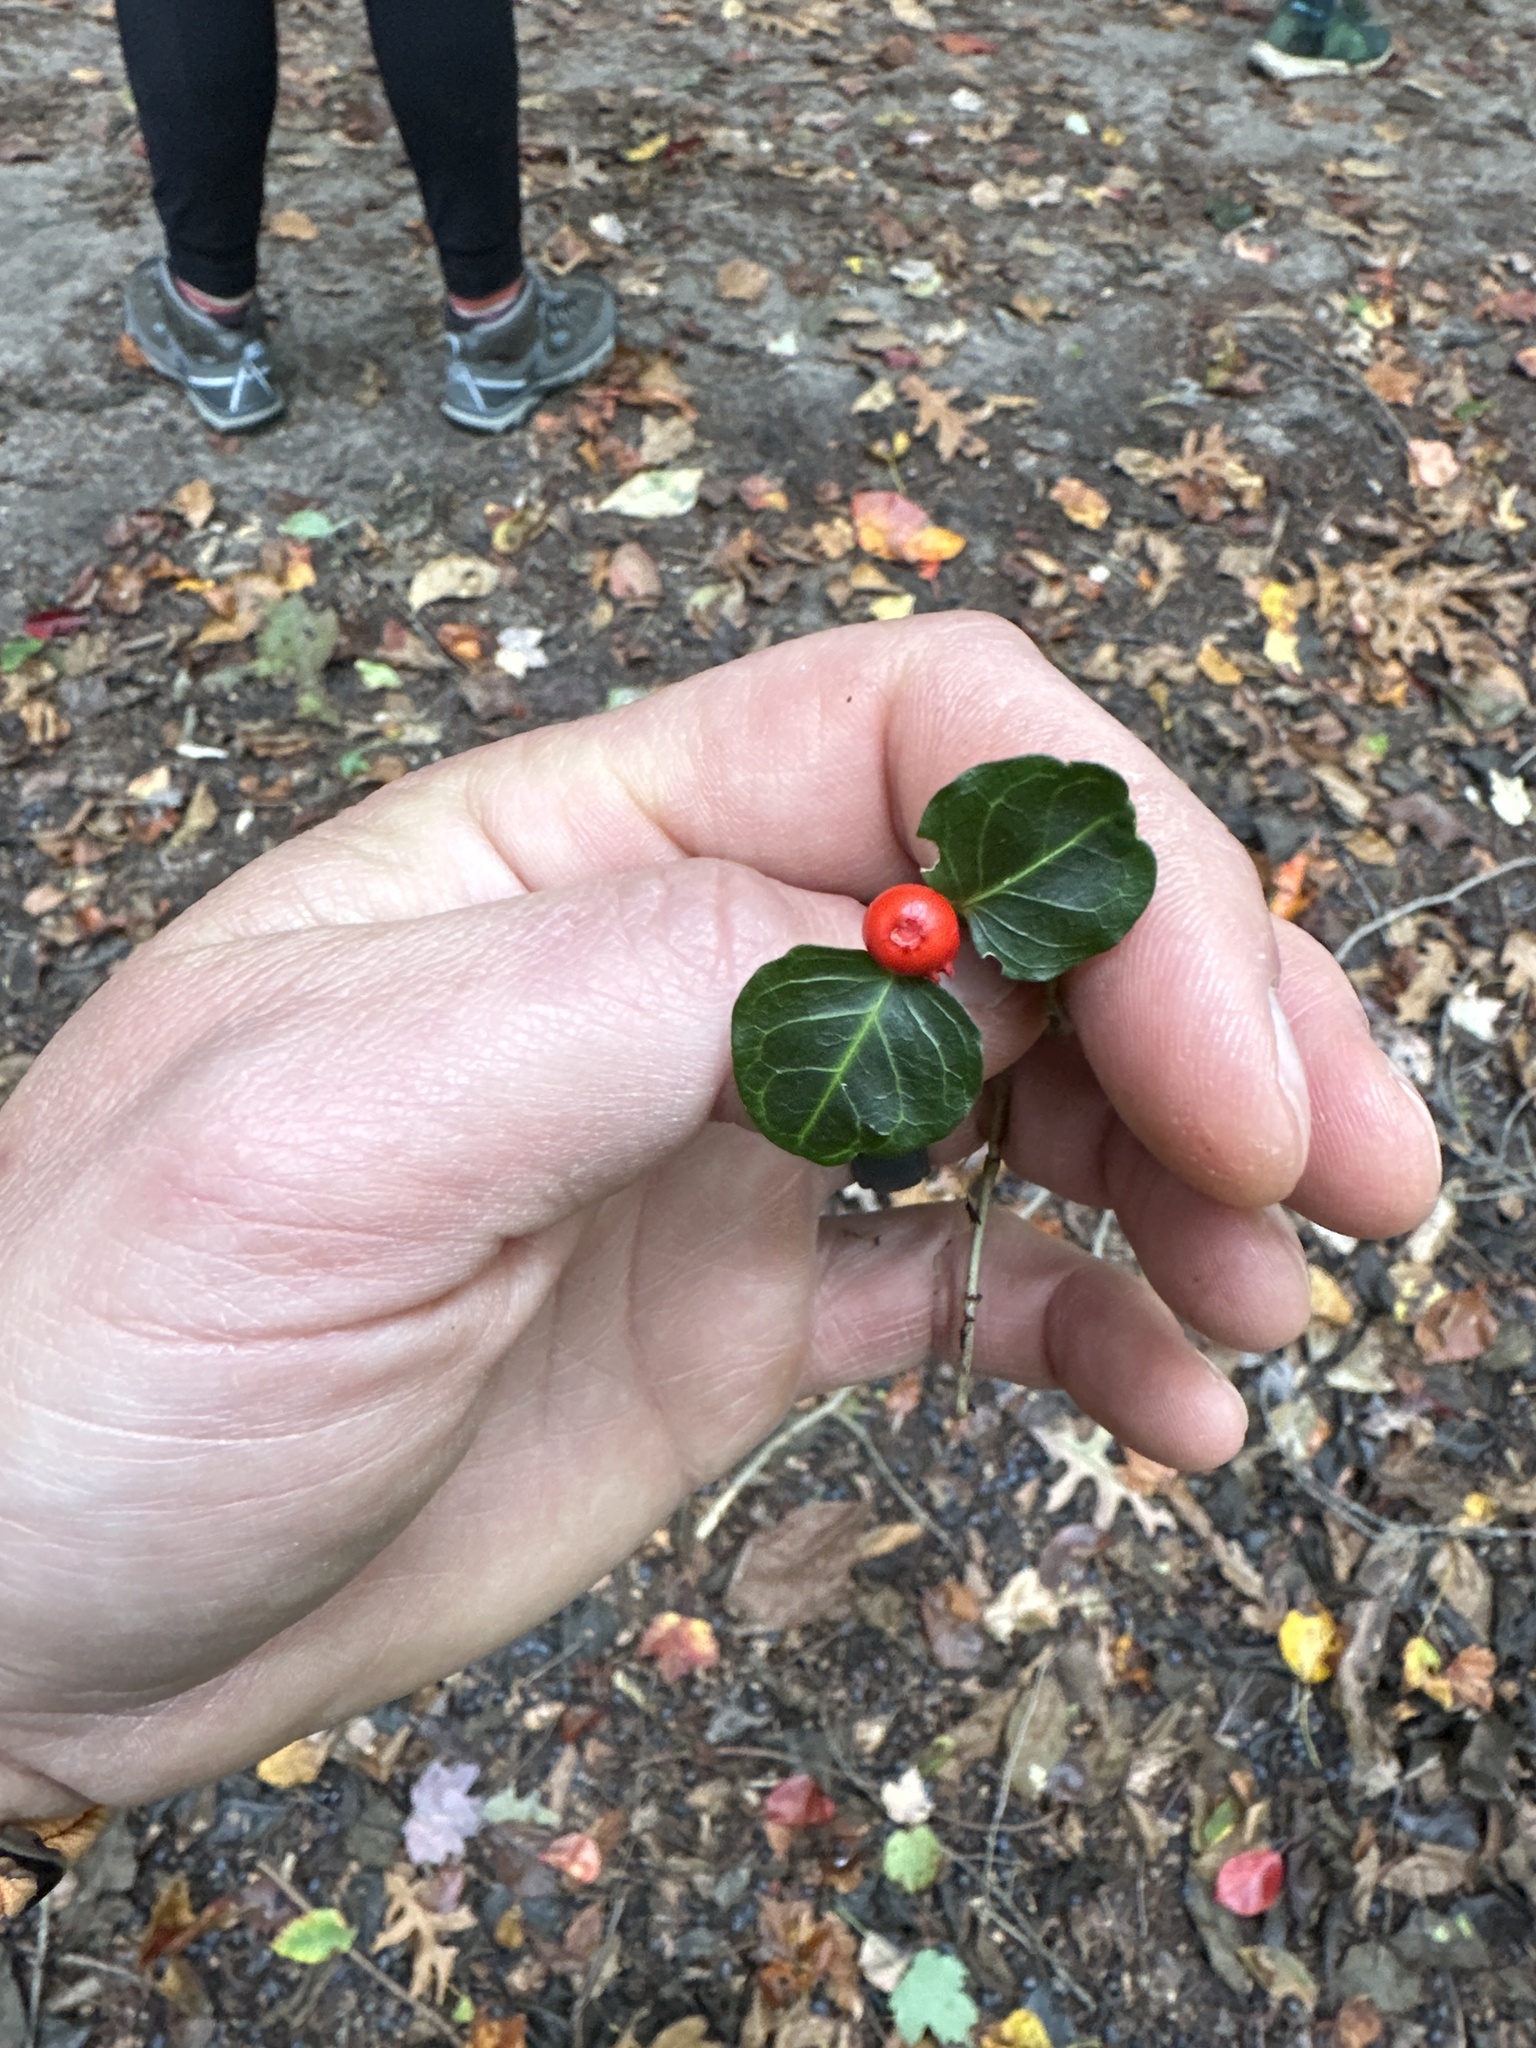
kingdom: Plantae
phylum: Tracheophyta
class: Magnoliopsida
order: Gentianales
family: Rubiaceae
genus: Mitchella
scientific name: Mitchella repens
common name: Partridge-berry
